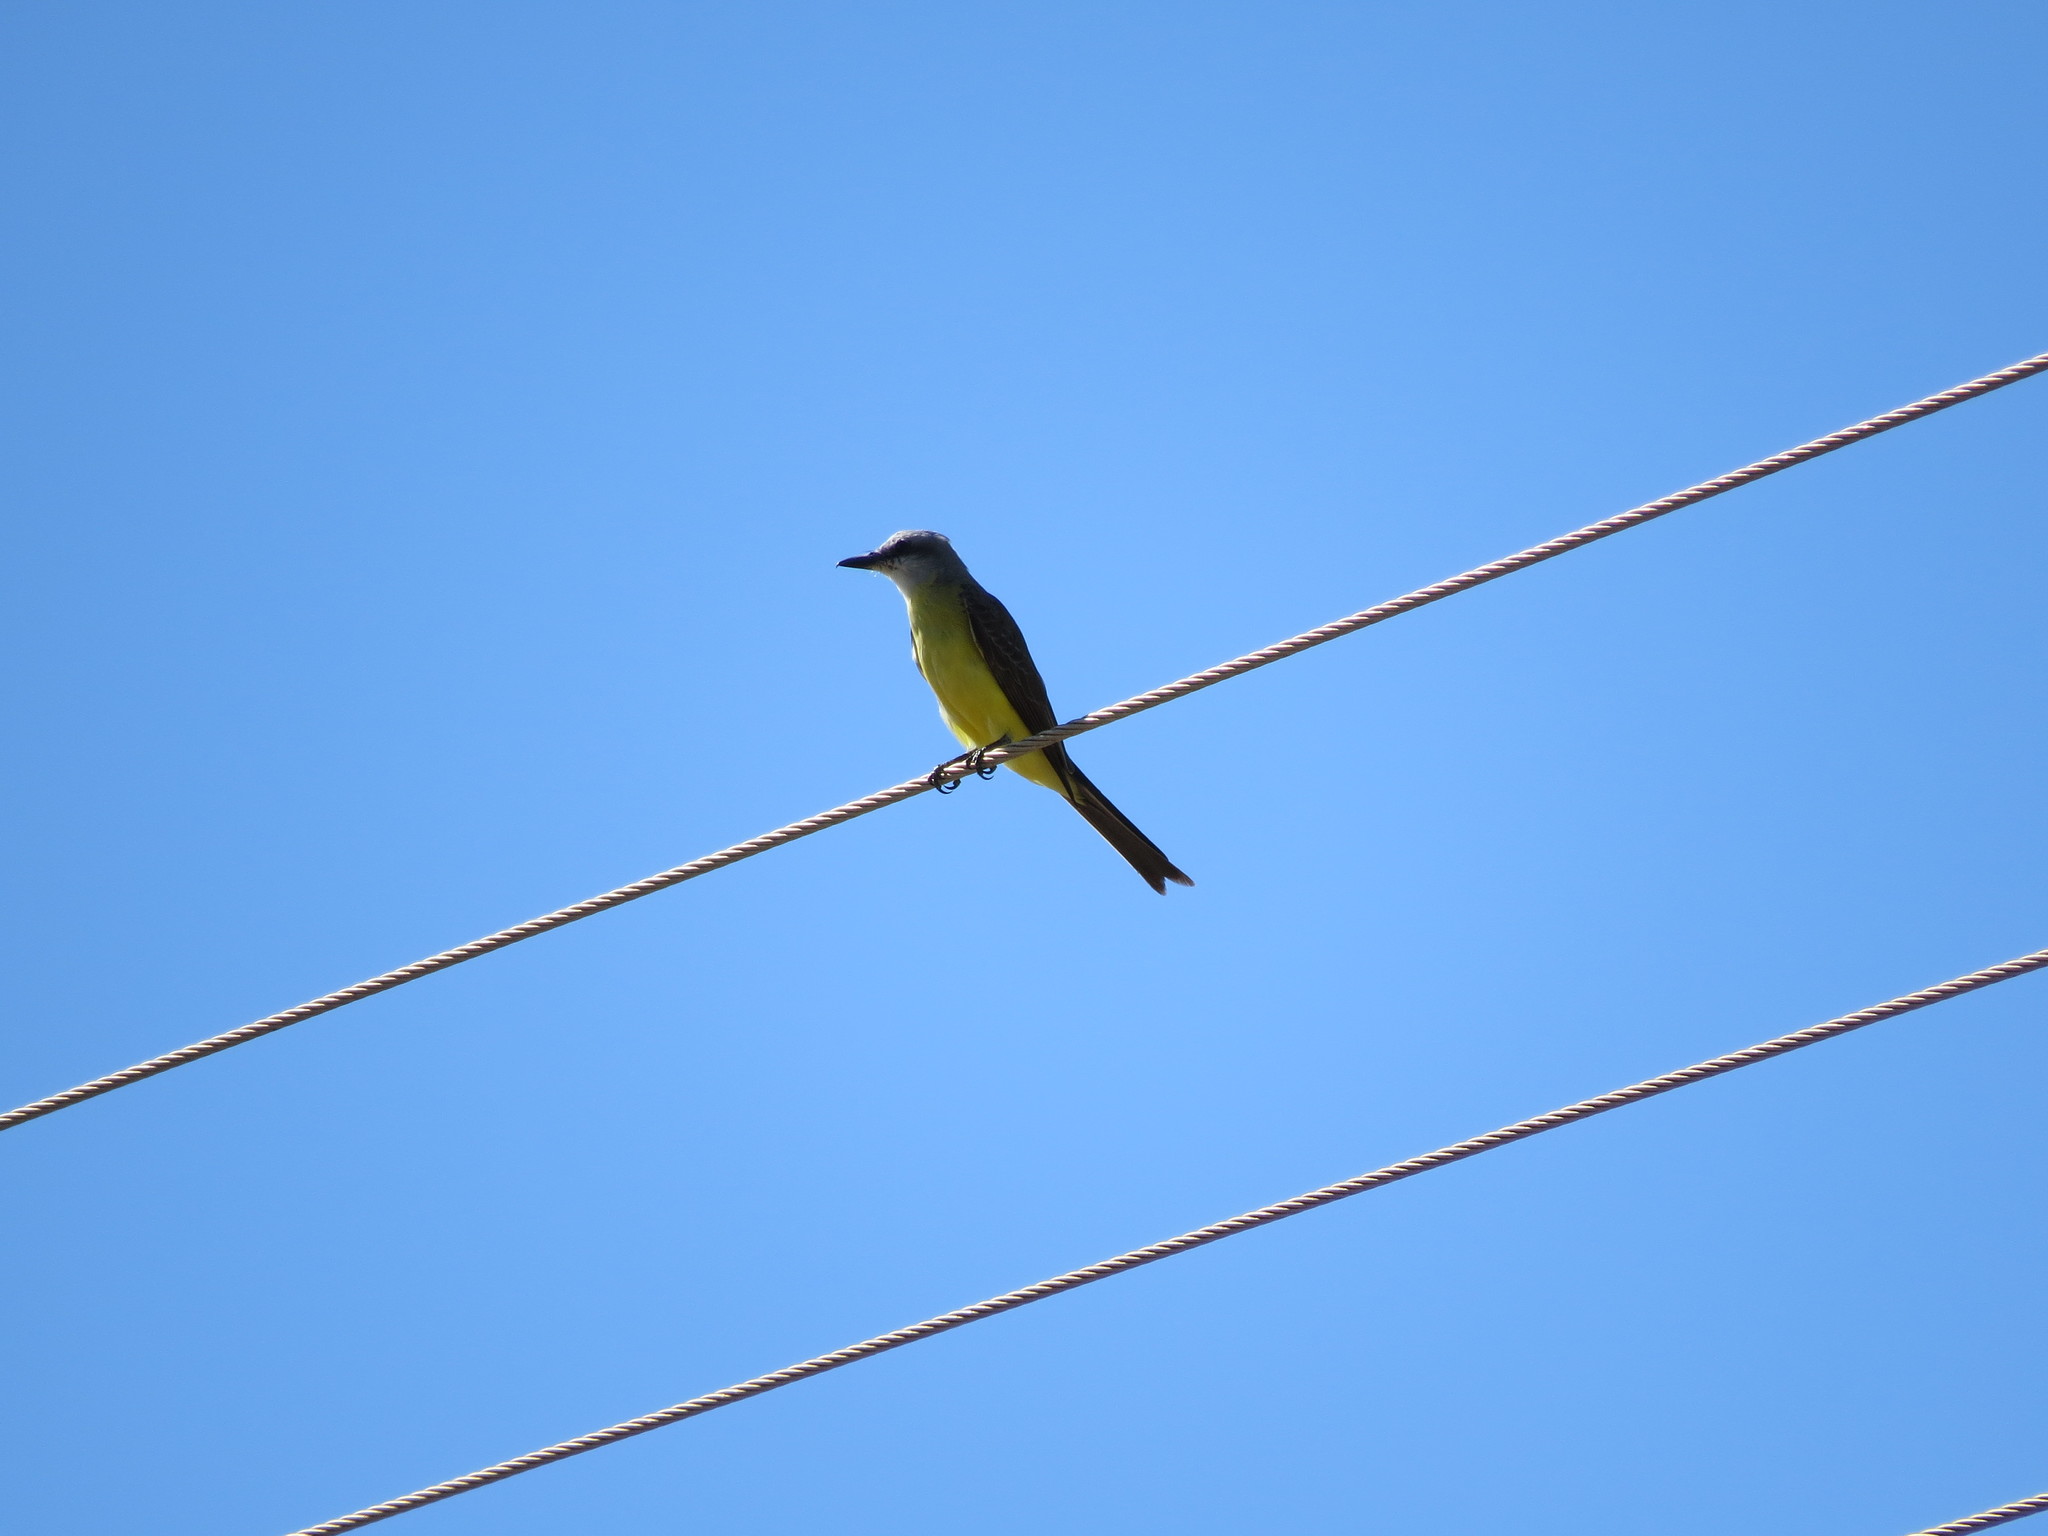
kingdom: Animalia
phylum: Chordata
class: Aves
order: Passeriformes
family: Tyrannidae
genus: Tyrannus
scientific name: Tyrannus melancholicus
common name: Tropical kingbird
